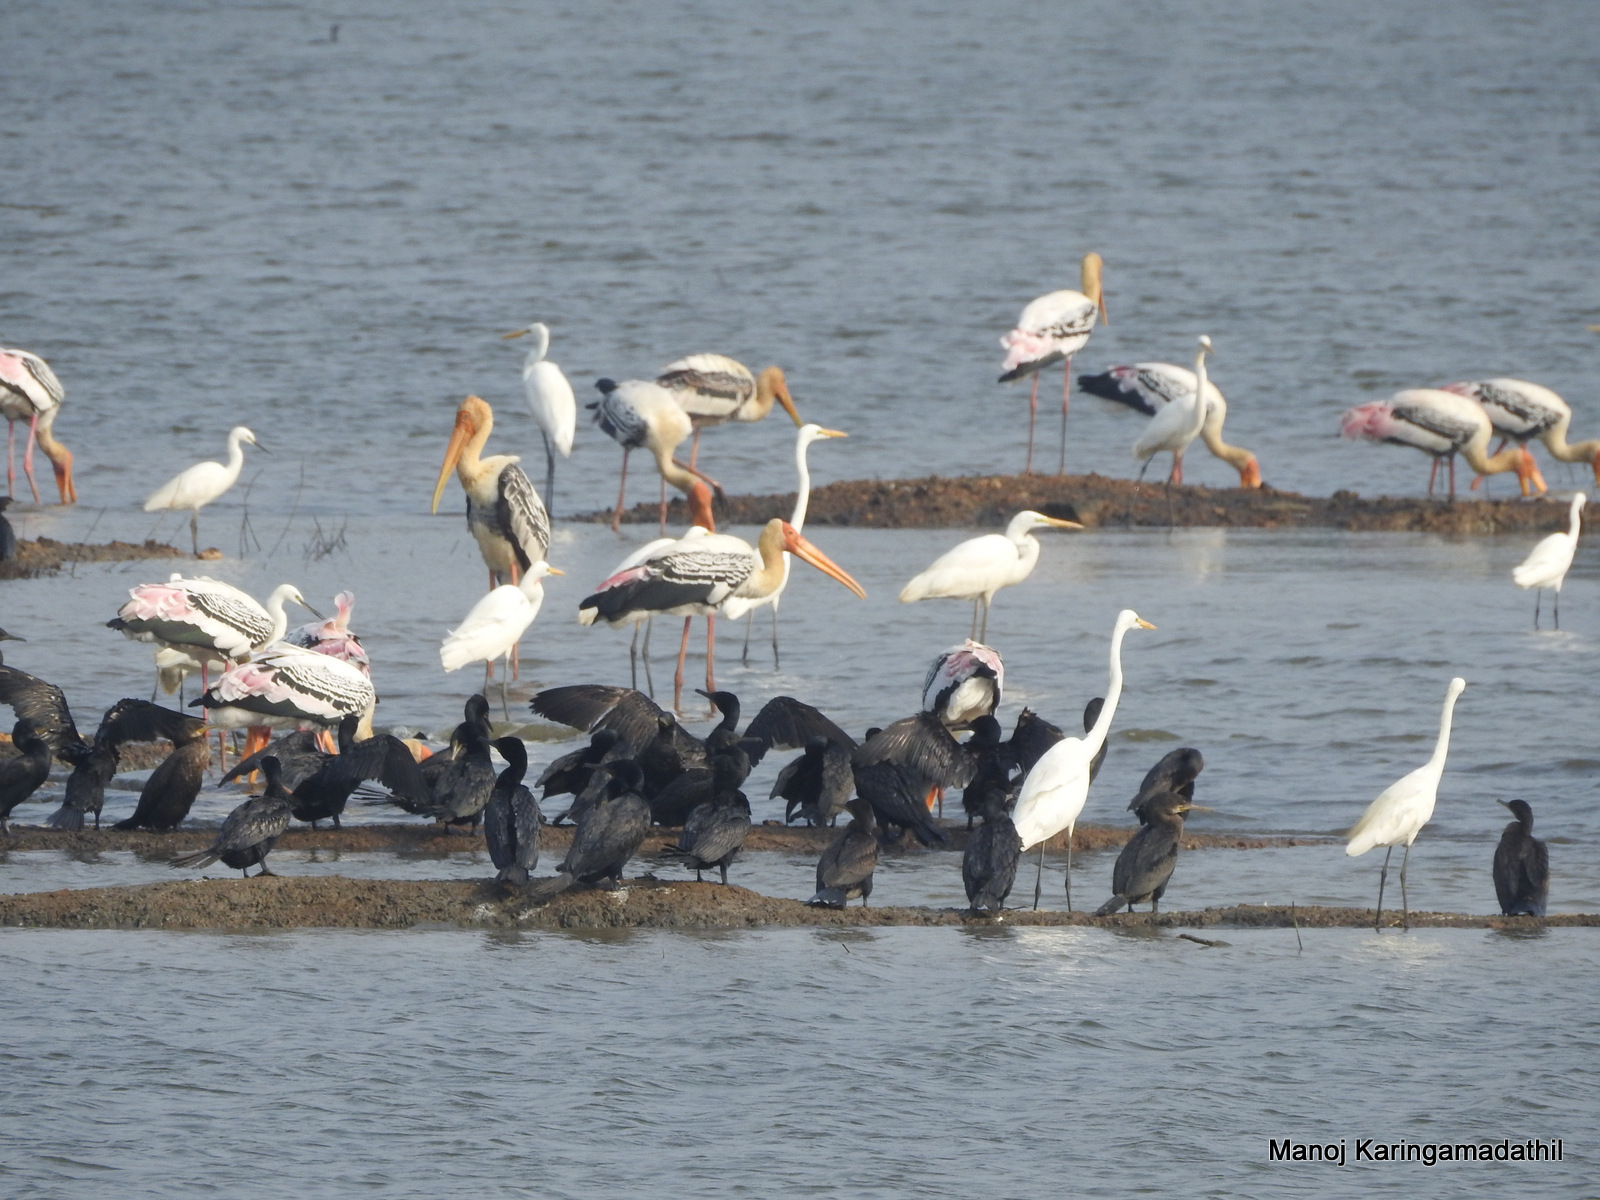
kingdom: Animalia
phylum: Chordata
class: Aves
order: Ciconiiformes
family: Ciconiidae
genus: Mycteria
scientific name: Mycteria leucocephala
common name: Painted stork
